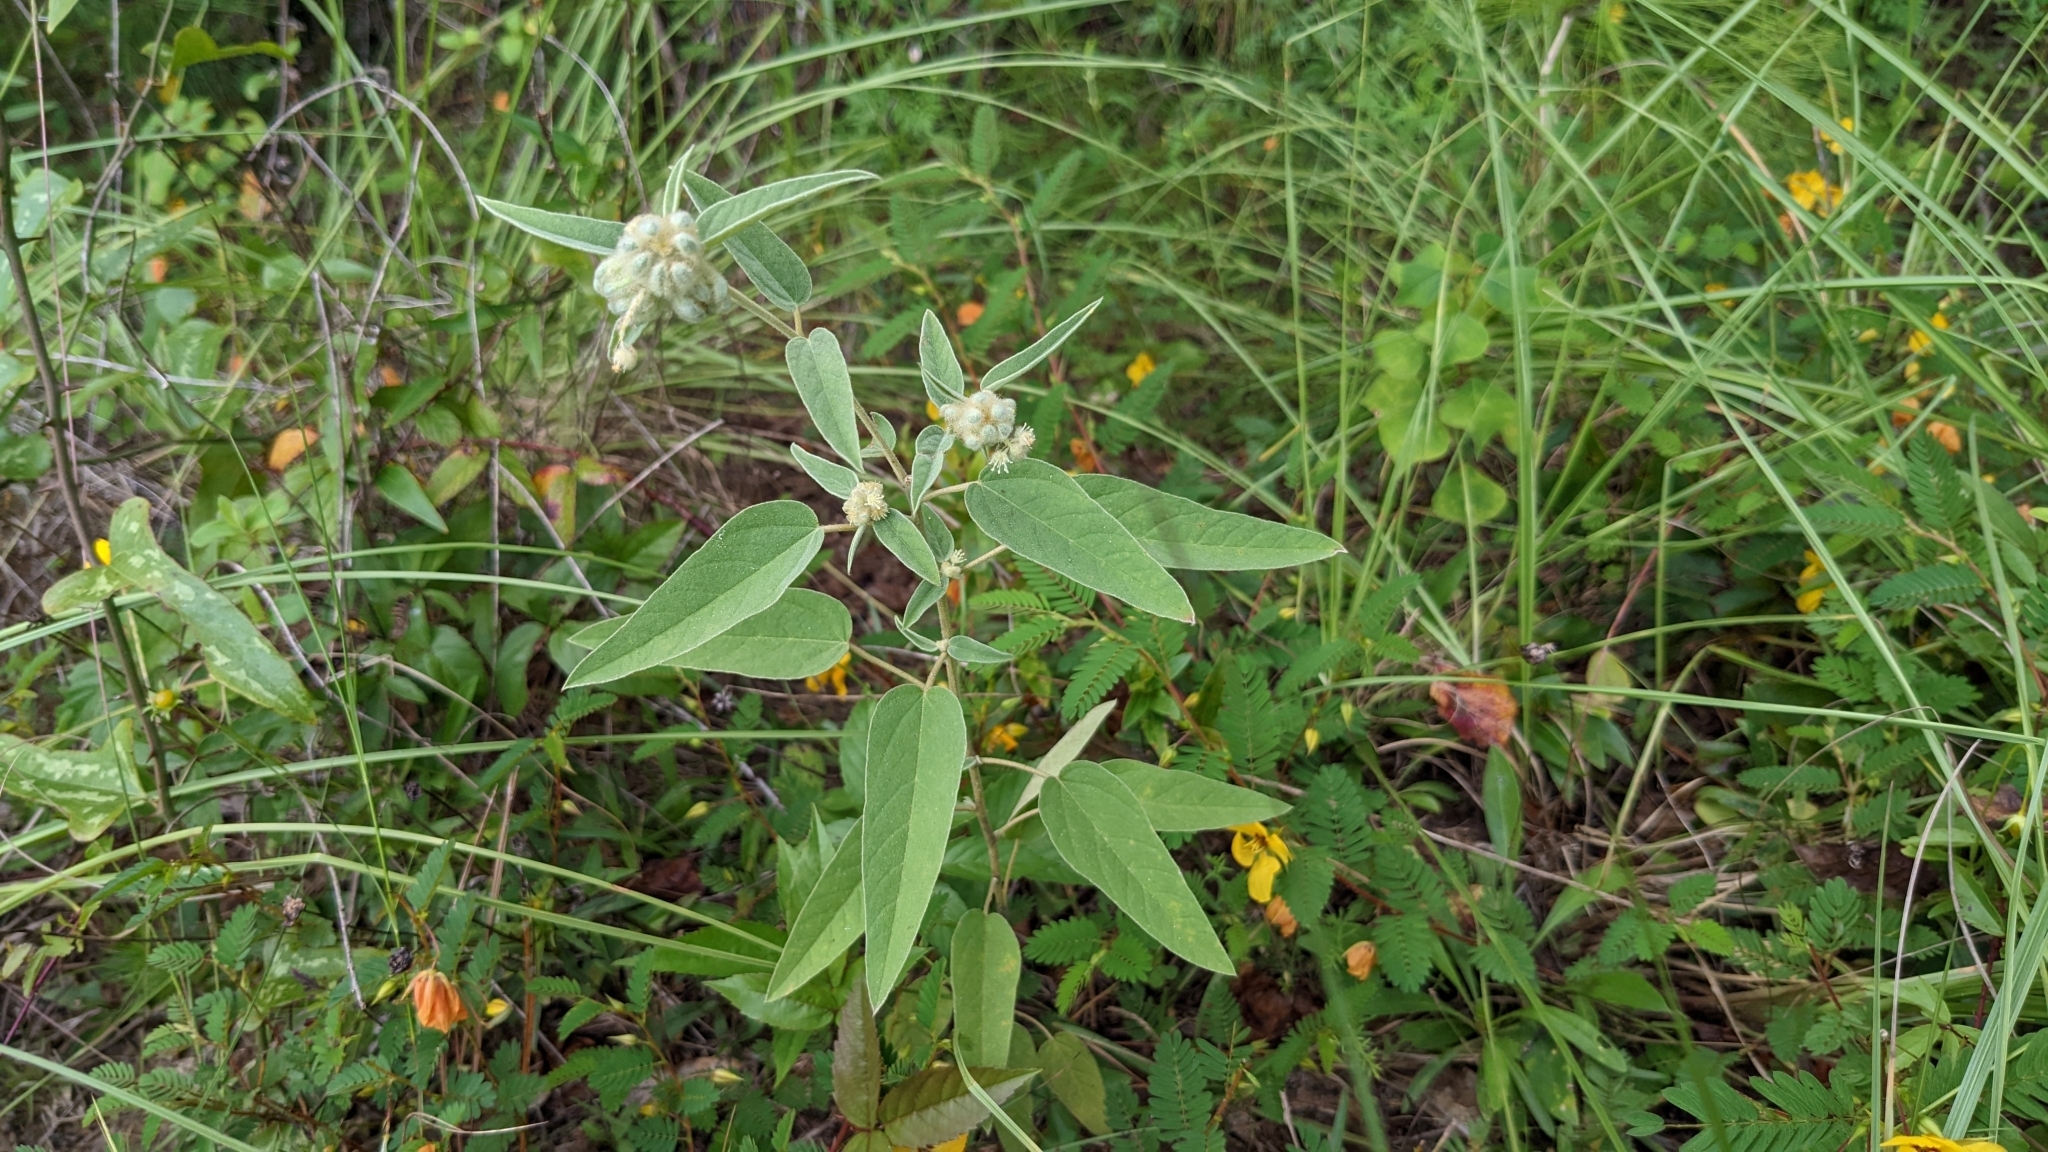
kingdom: Plantae
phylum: Tracheophyta
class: Magnoliopsida
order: Malpighiales
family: Euphorbiaceae
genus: Croton
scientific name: Croton lindheimeri
